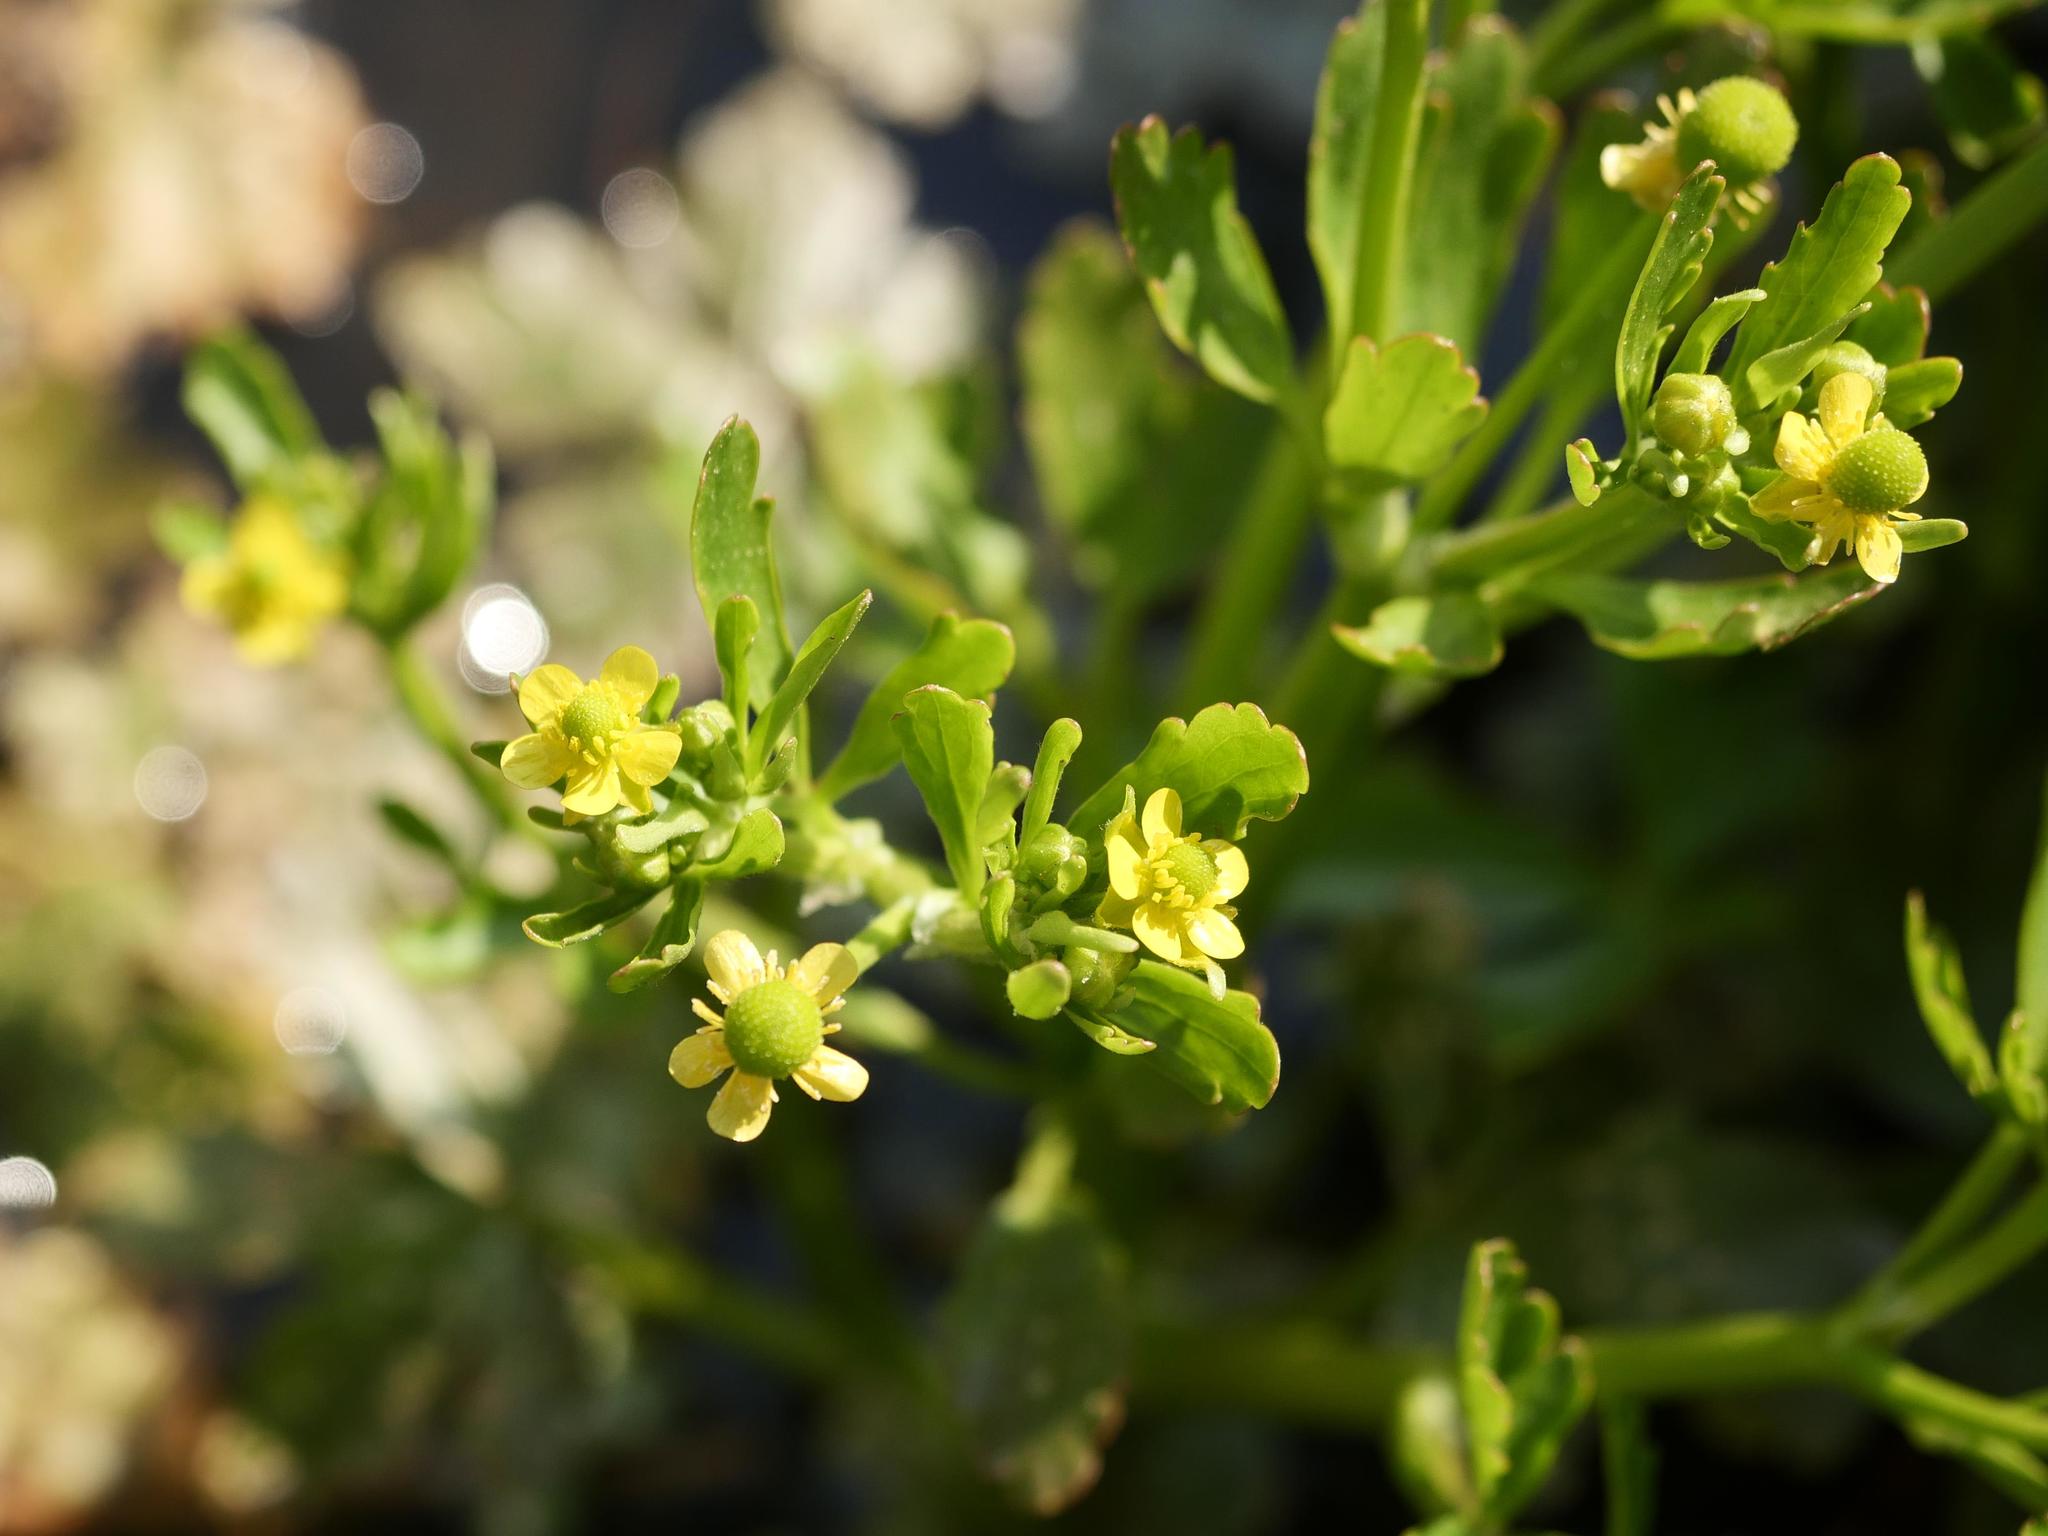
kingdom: Plantae
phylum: Tracheophyta
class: Magnoliopsida
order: Ranunculales
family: Ranunculaceae
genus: Ranunculus
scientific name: Ranunculus sceleratus
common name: Celery-leaved buttercup
